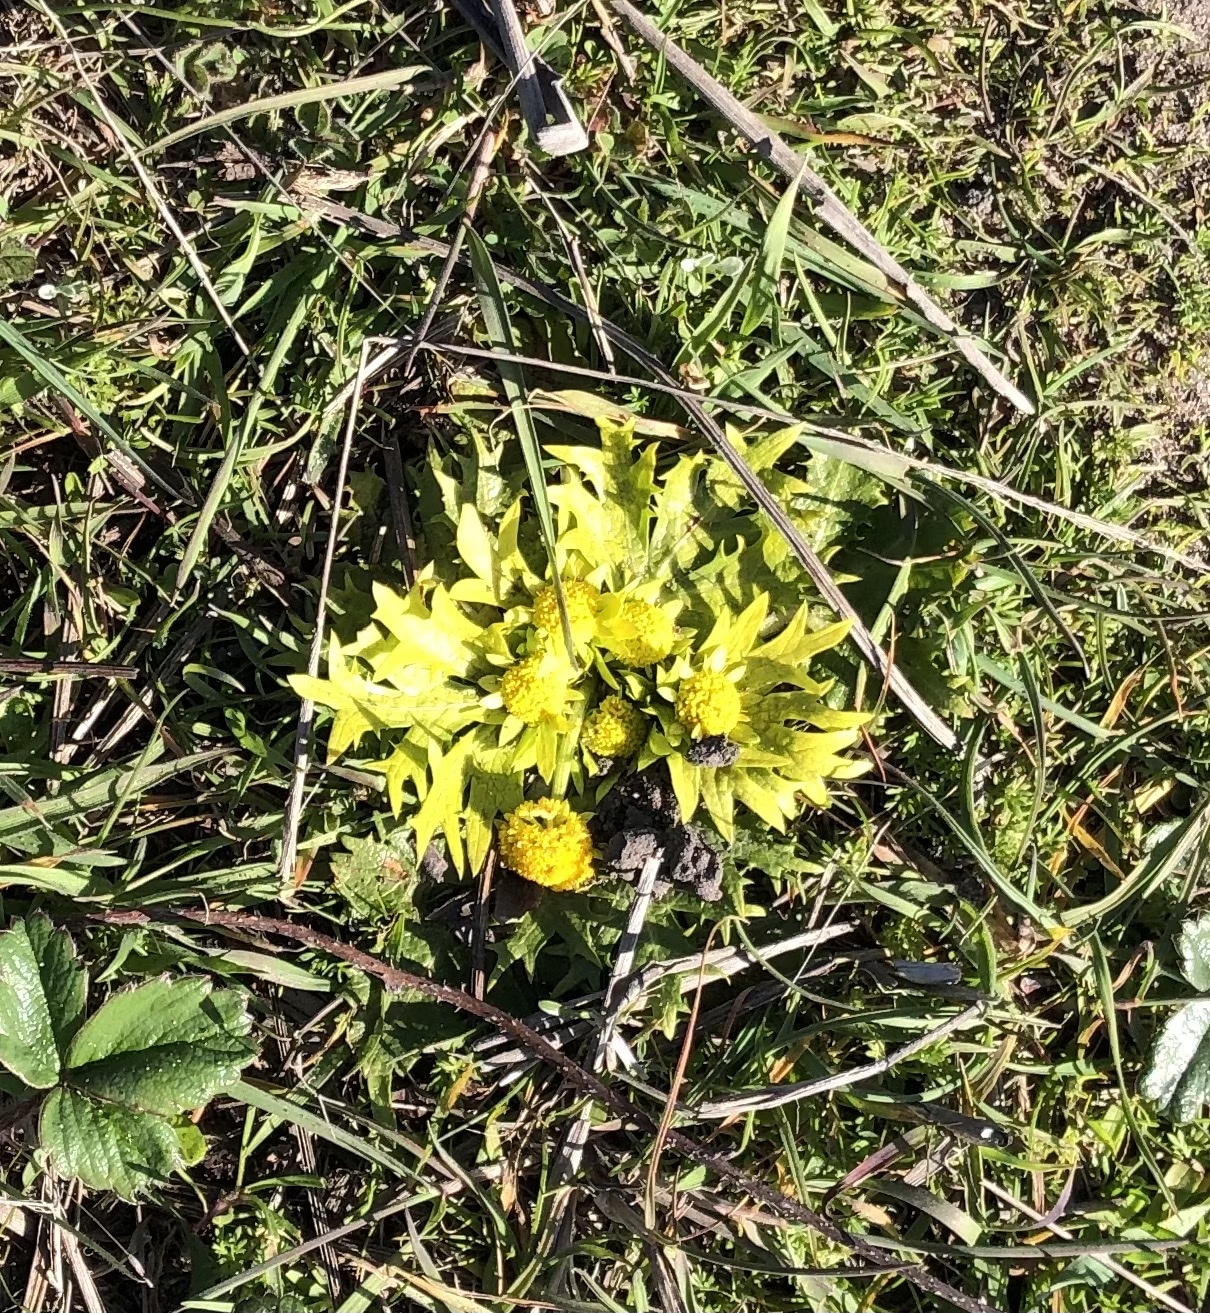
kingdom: Plantae
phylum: Tracheophyta
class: Magnoliopsida
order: Apiales
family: Apiaceae
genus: Sanicula
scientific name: Sanicula arctopoides
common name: Footsteps-of-spring
